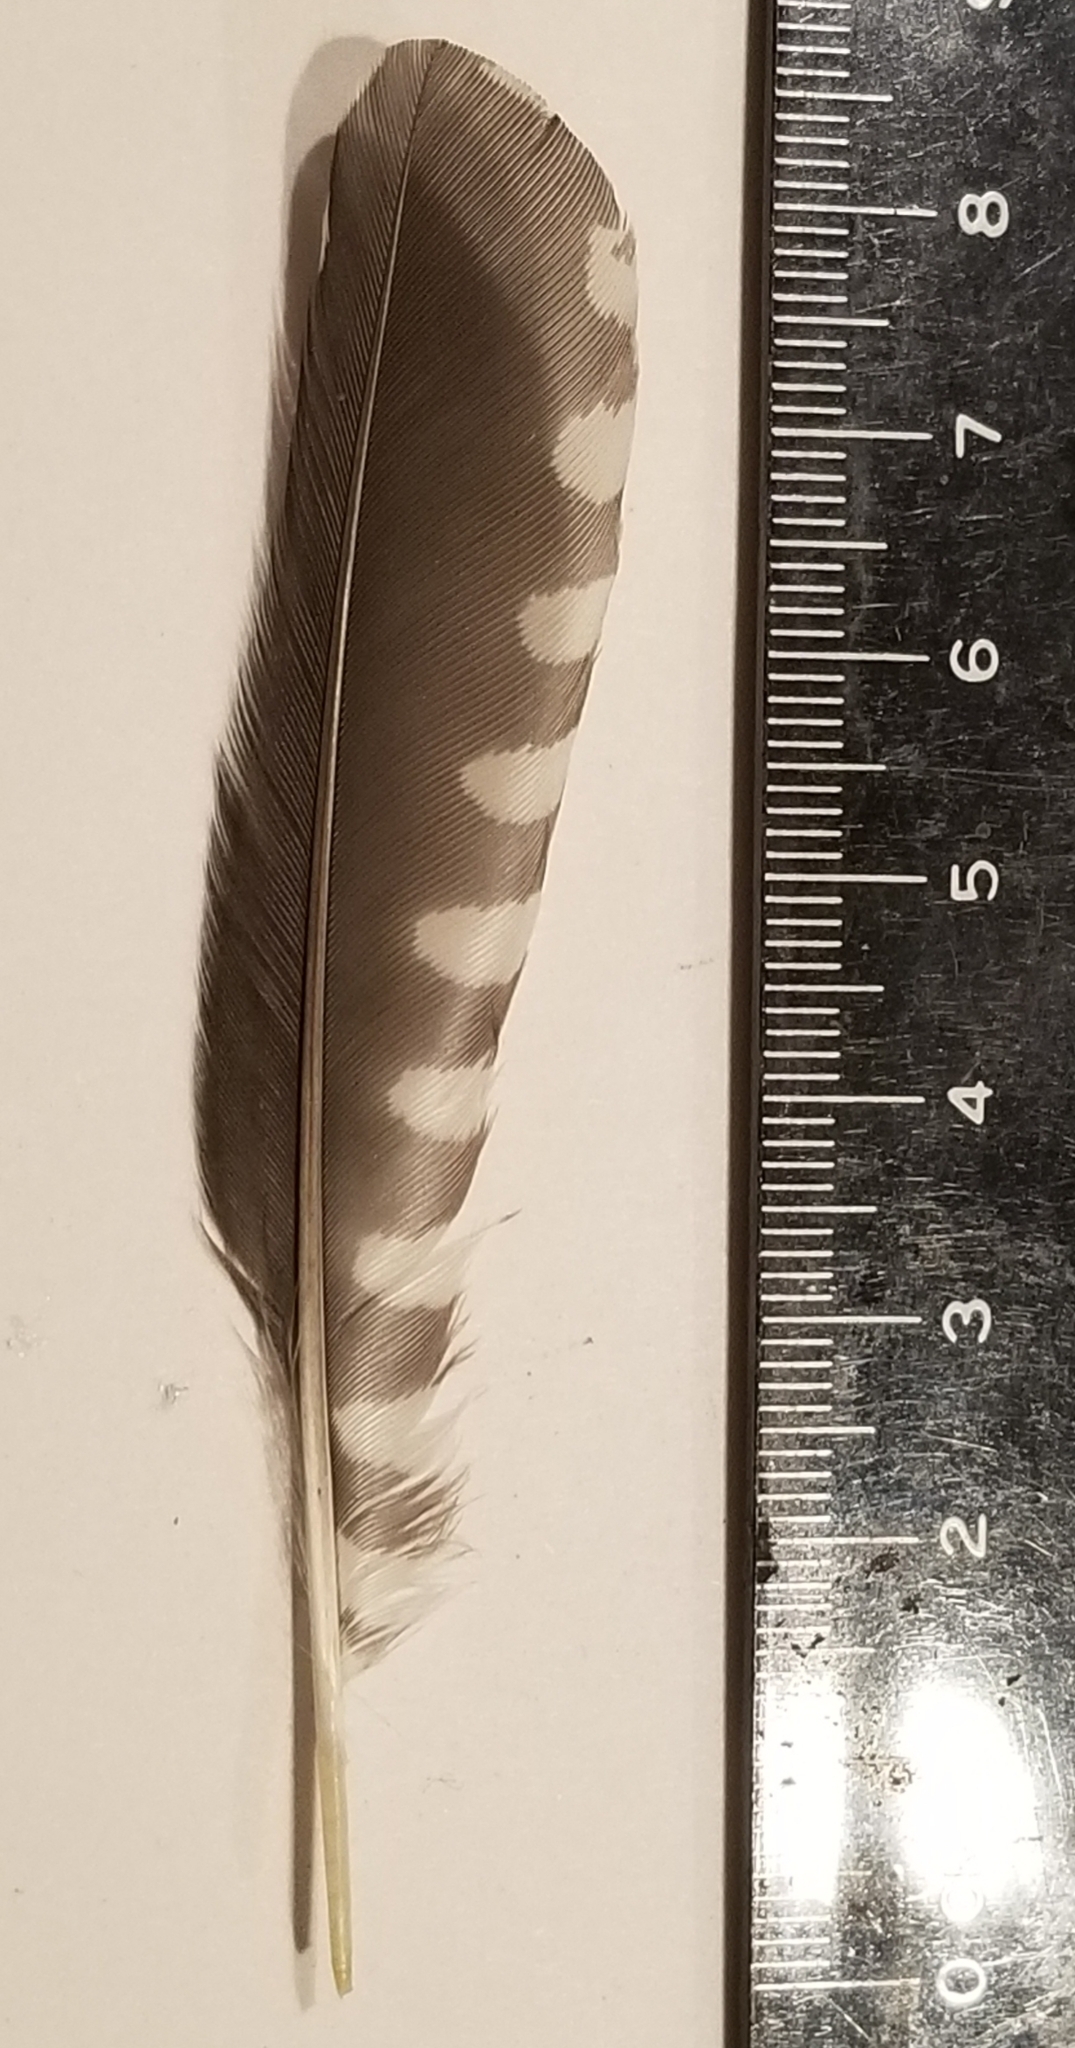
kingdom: Animalia
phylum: Chordata
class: Aves
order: Piciformes
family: Picidae
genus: Sphyrapicus
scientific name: Sphyrapicus ruber
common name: Red-breasted sapsucker
